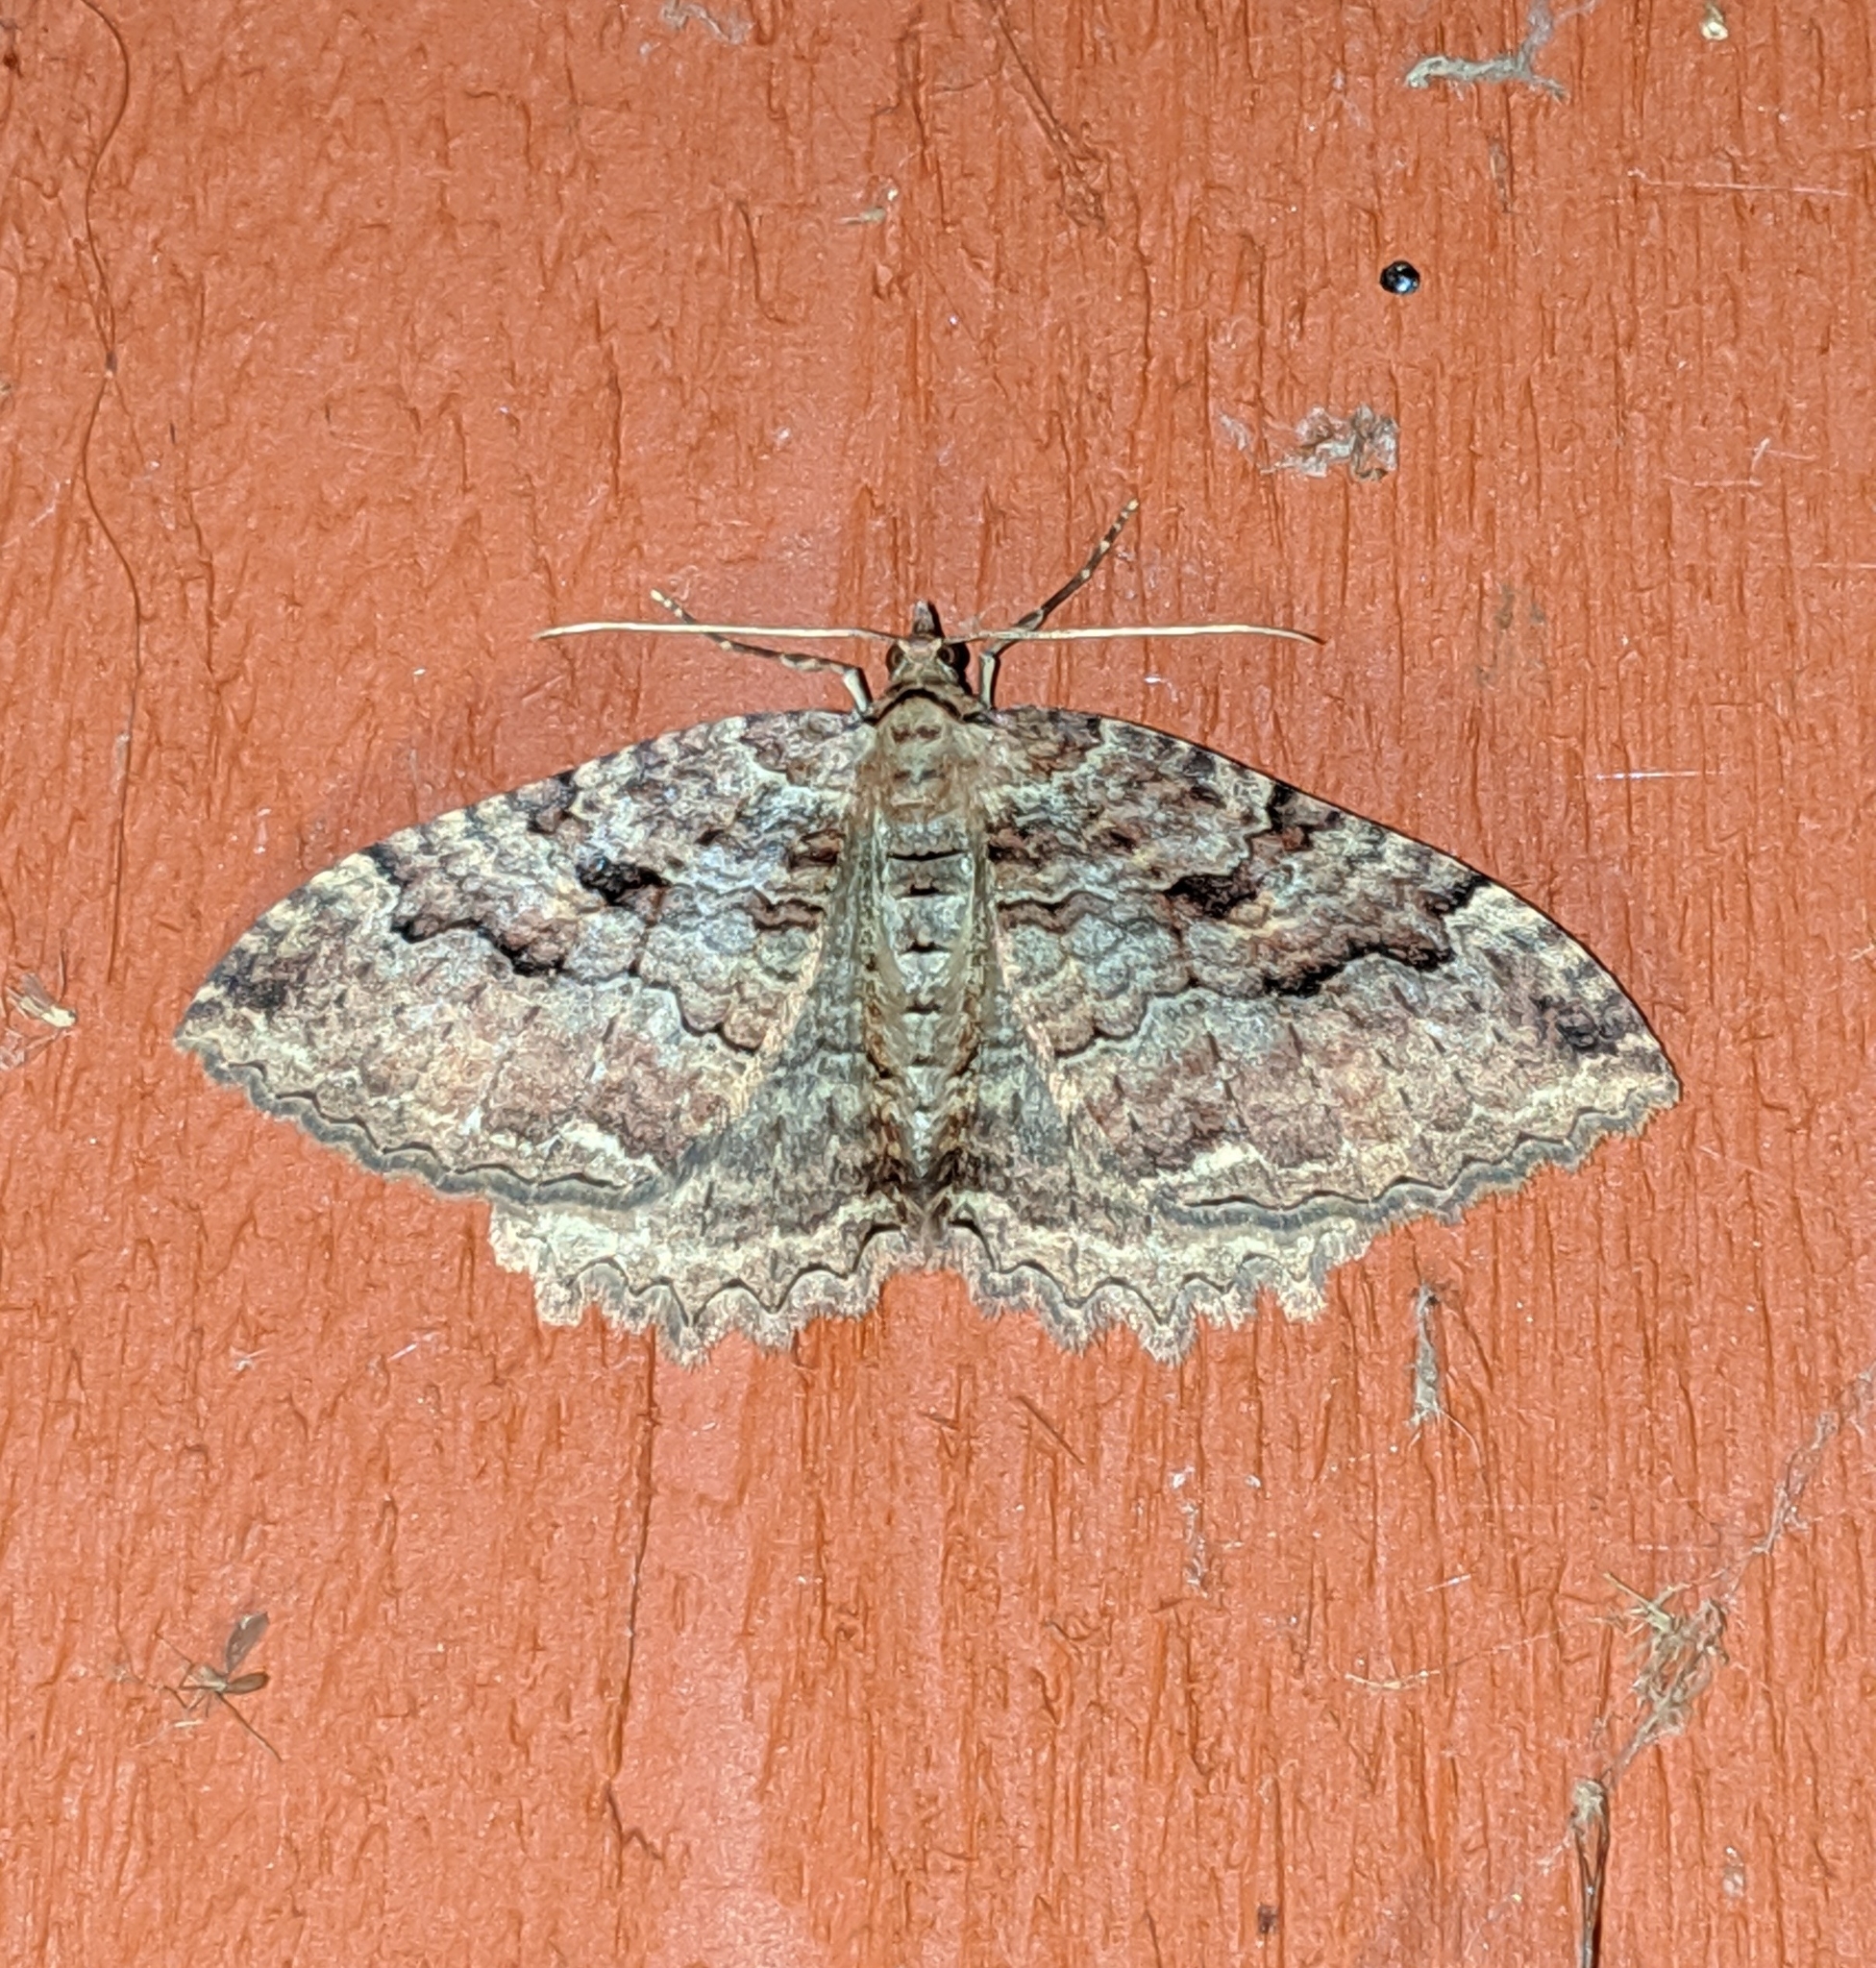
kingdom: Animalia
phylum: Arthropoda
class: Insecta
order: Lepidoptera
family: Geometridae
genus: Triphosa
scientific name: Triphosa haesitata
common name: Tissue moth
